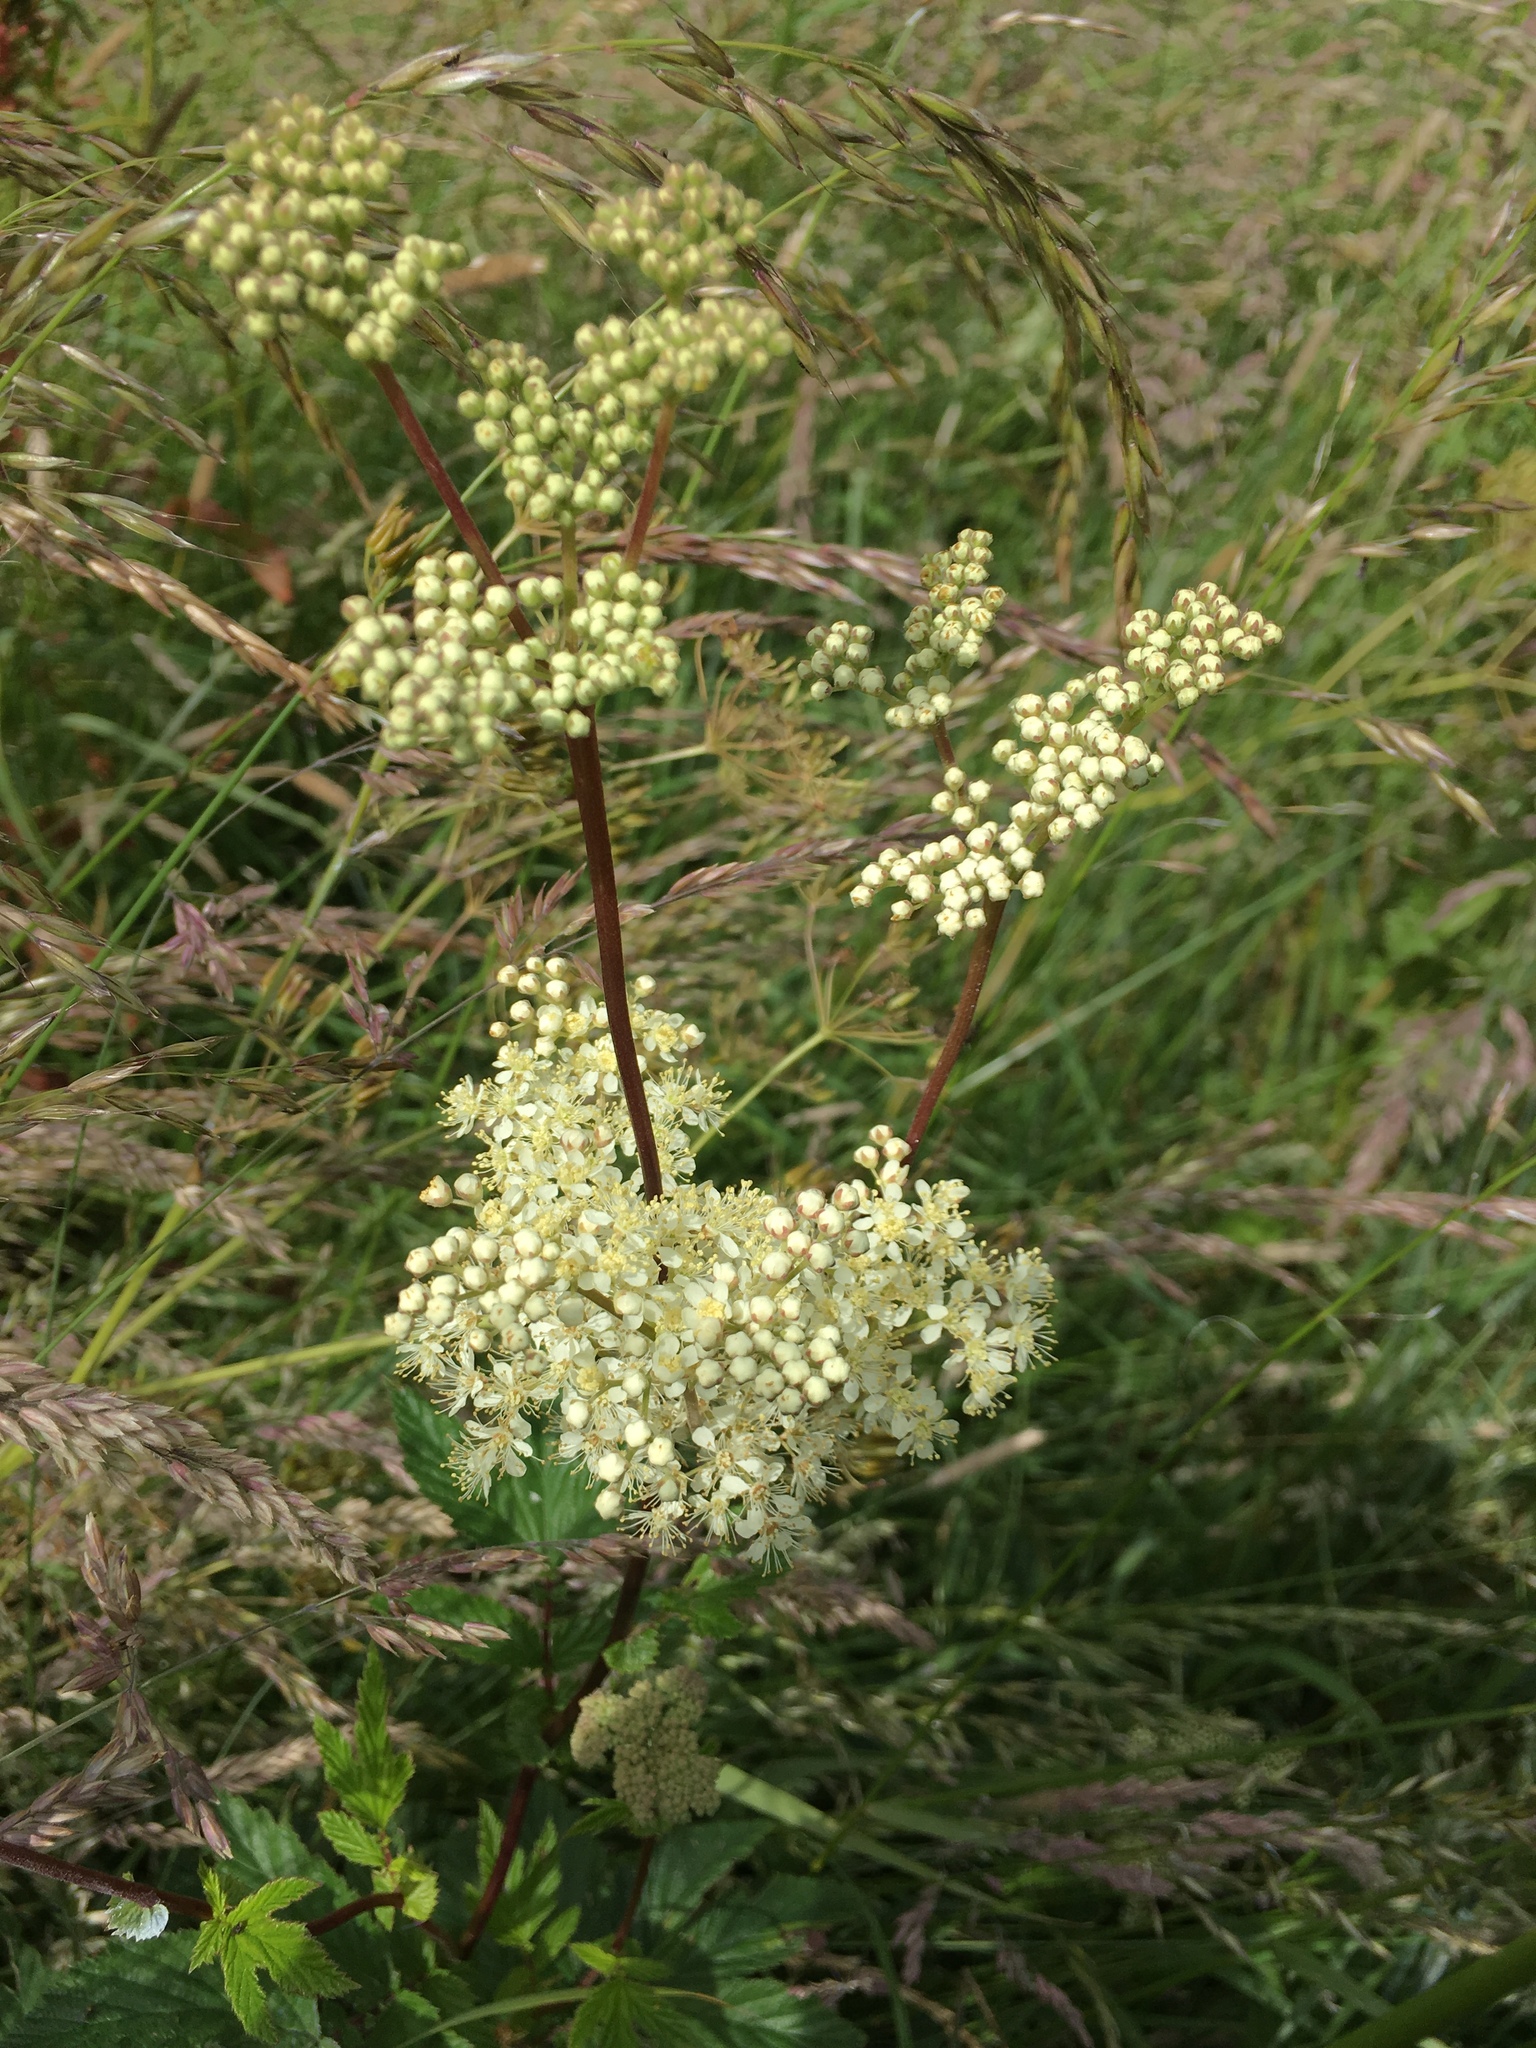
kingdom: Plantae
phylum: Tracheophyta
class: Magnoliopsida
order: Rosales
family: Rosaceae
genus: Filipendula
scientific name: Filipendula ulmaria
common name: Meadowsweet
